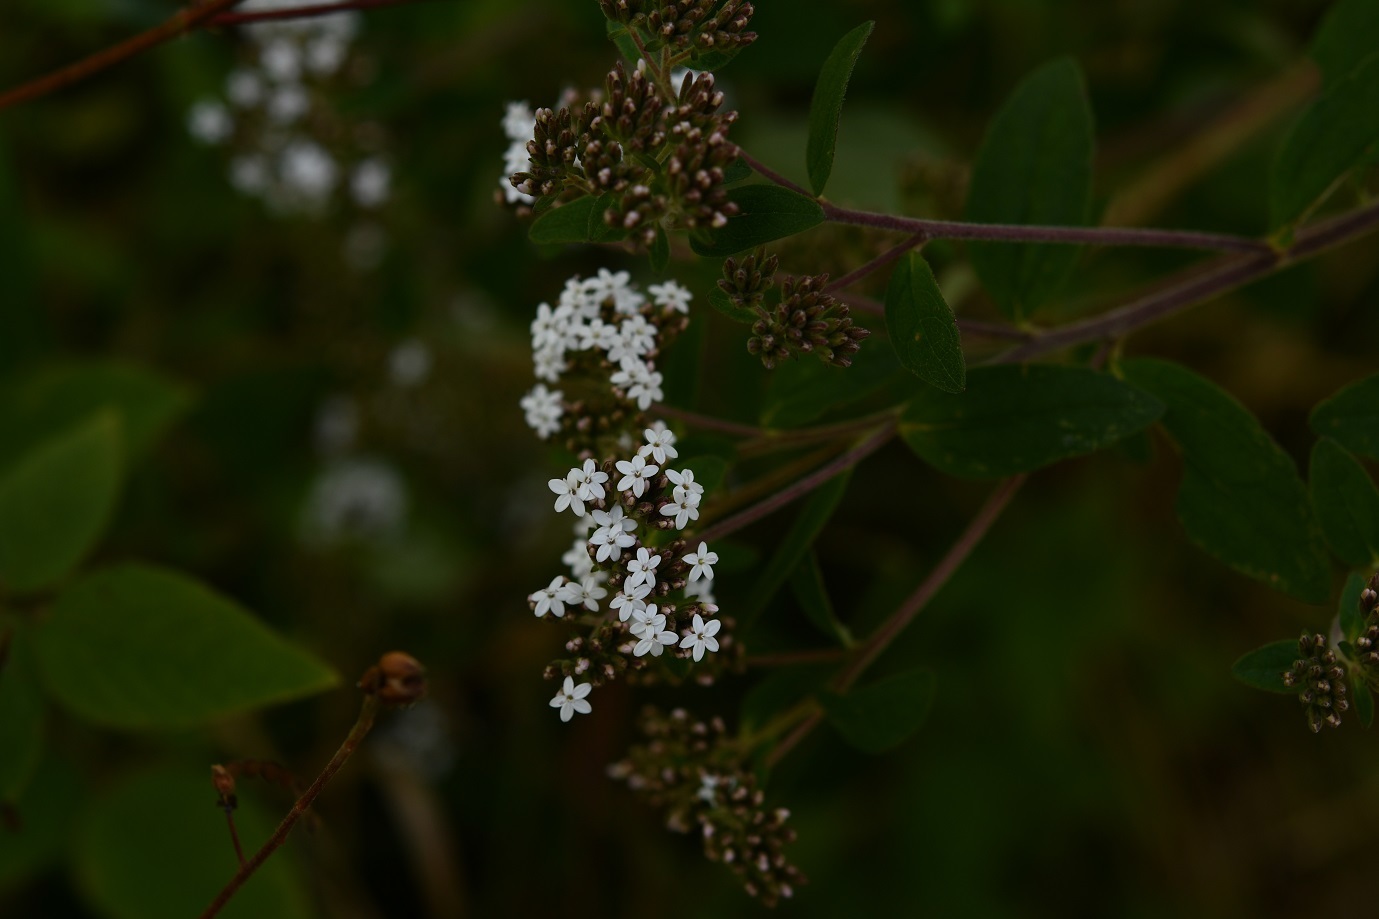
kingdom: Plantae
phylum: Tracheophyta
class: Magnoliopsida
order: Asterales
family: Asteraceae
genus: Stevia
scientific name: Stevia jorullensis
